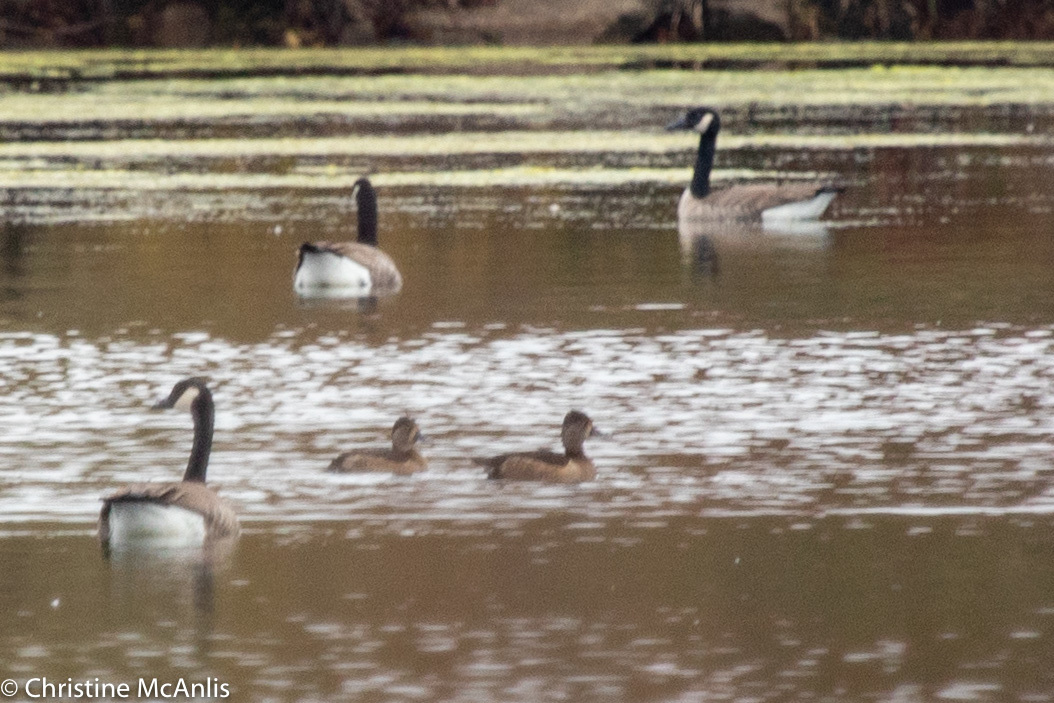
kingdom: Animalia
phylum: Chordata
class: Aves
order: Anseriformes
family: Anatidae
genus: Aythya
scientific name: Aythya collaris
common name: Ring-necked duck
